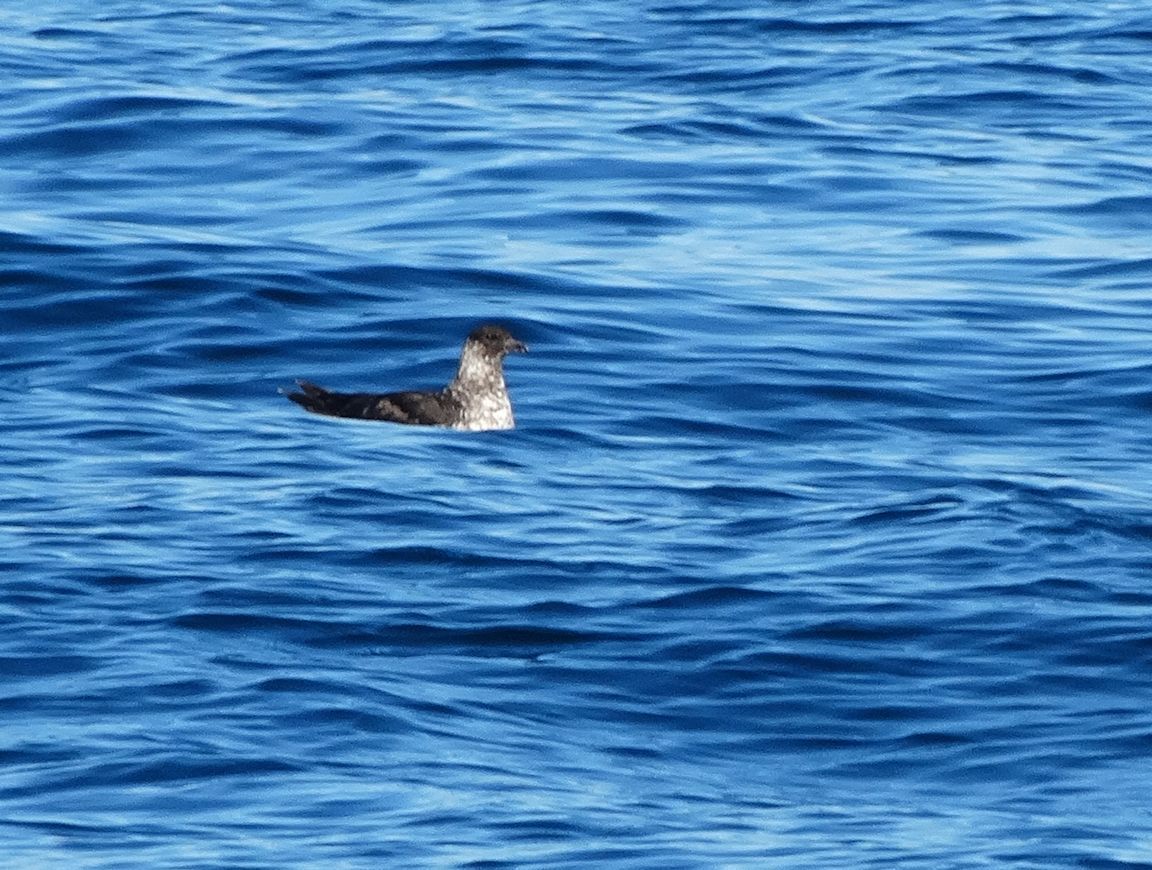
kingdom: Animalia
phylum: Chordata
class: Aves
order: Charadriiformes
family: Stercorariidae
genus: Stercorarius
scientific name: Stercorarius pomarinus
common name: Pomarine jaeger
